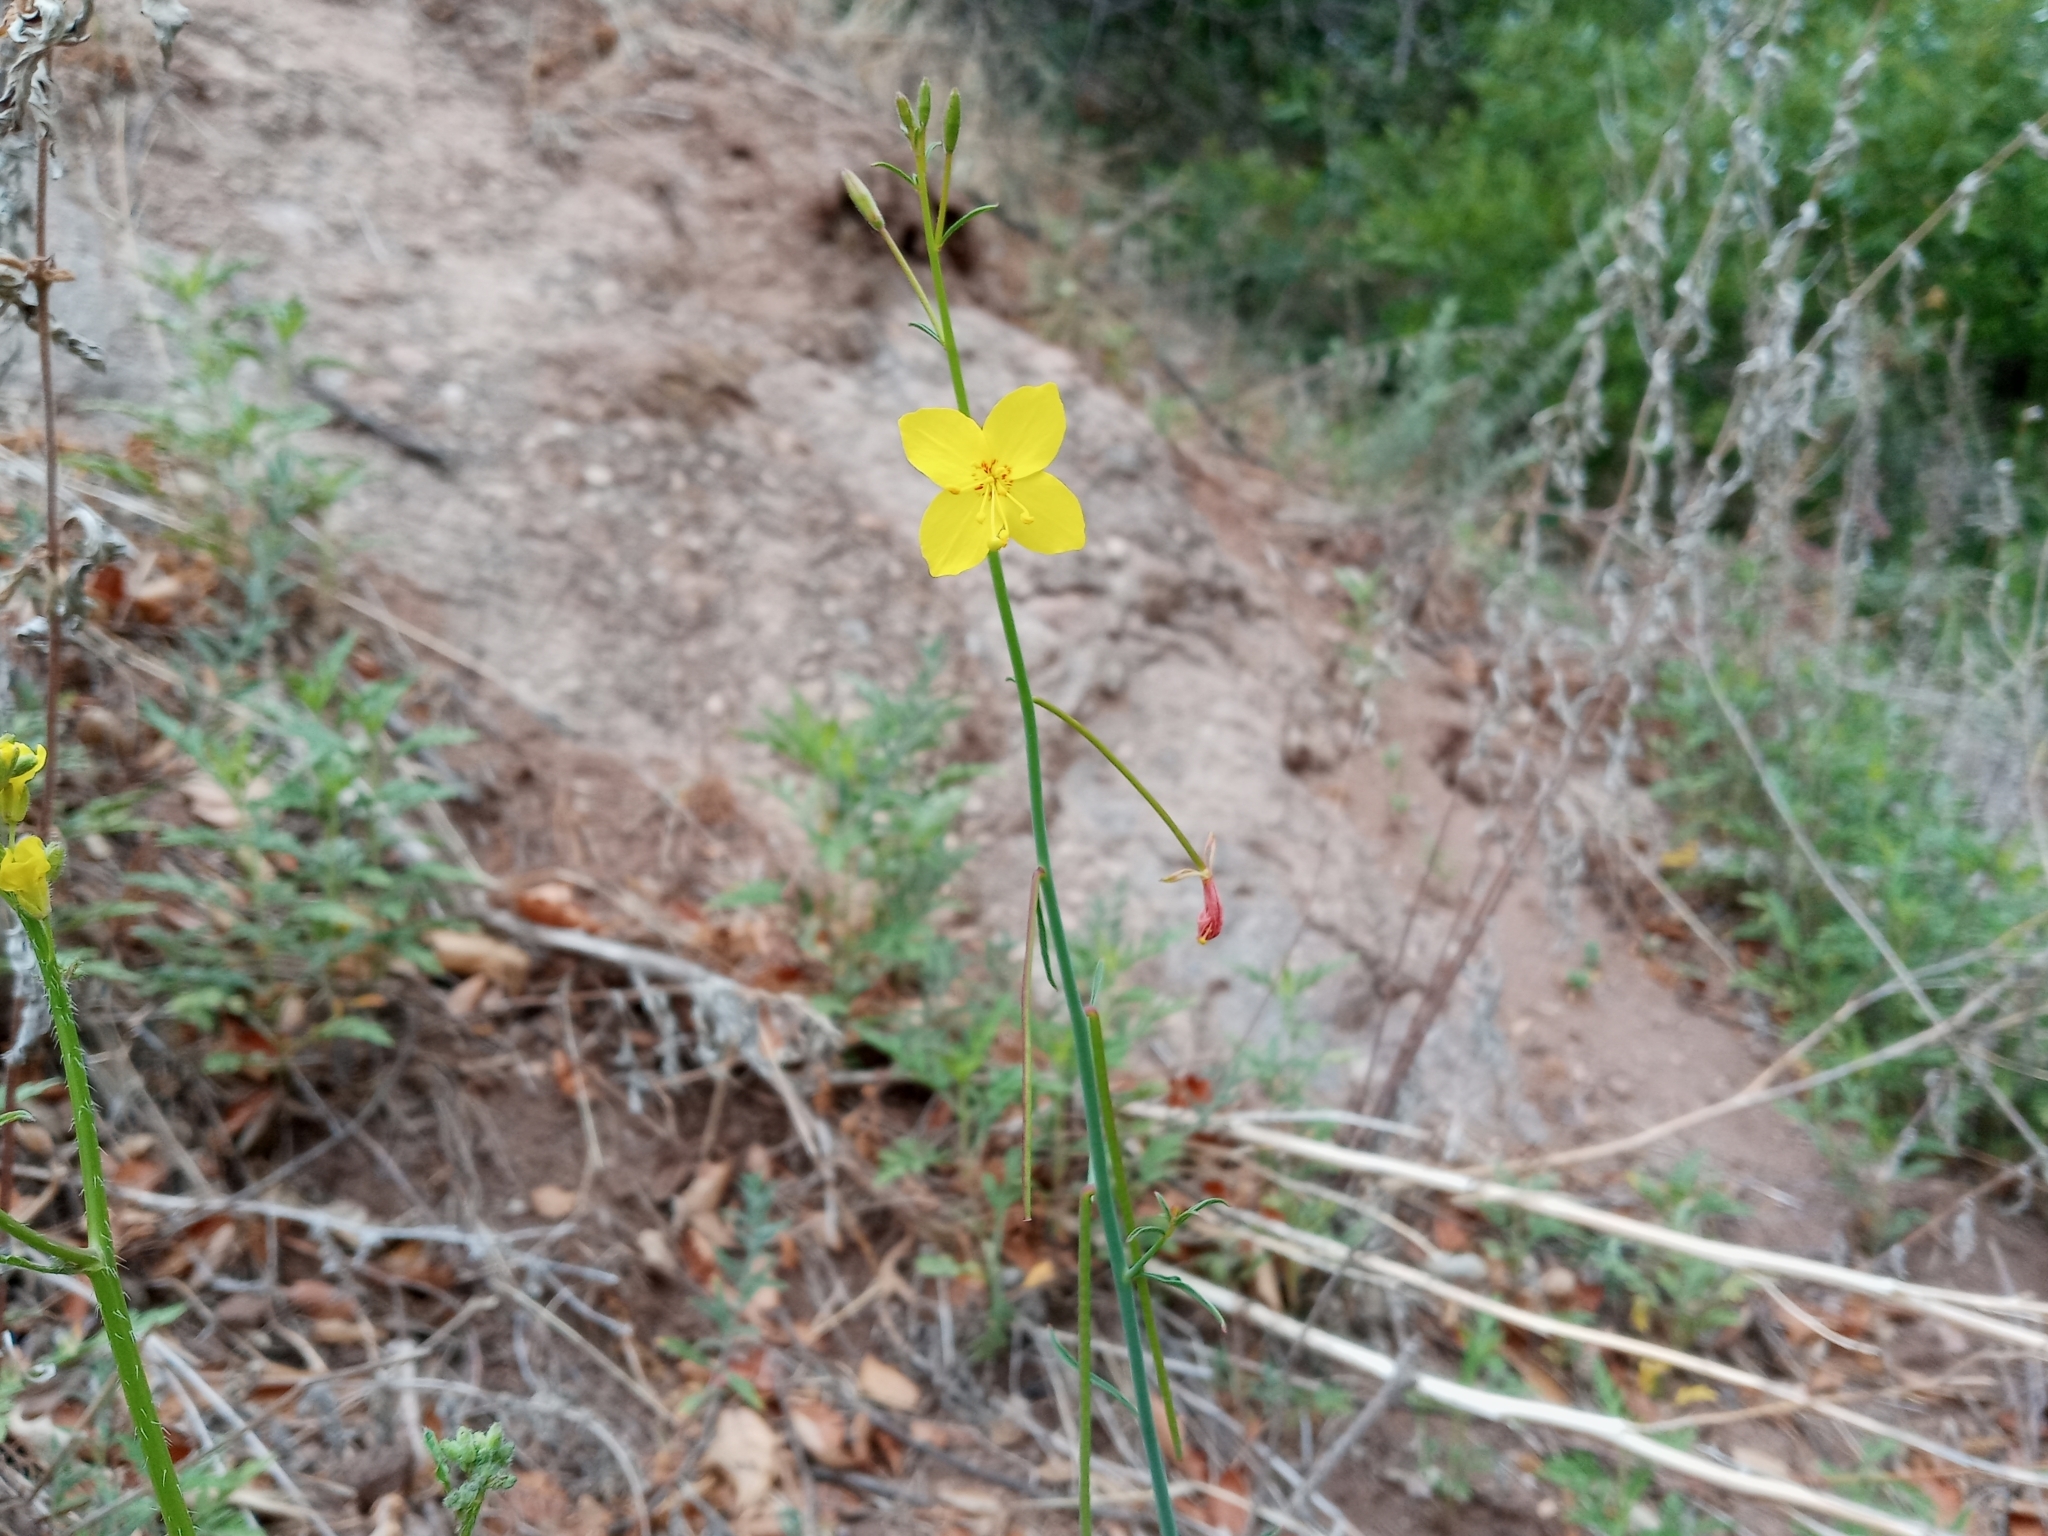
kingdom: Plantae
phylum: Tracheophyta
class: Magnoliopsida
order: Myrtales
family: Onagraceae
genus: Eulobus
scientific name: Eulobus californicus
